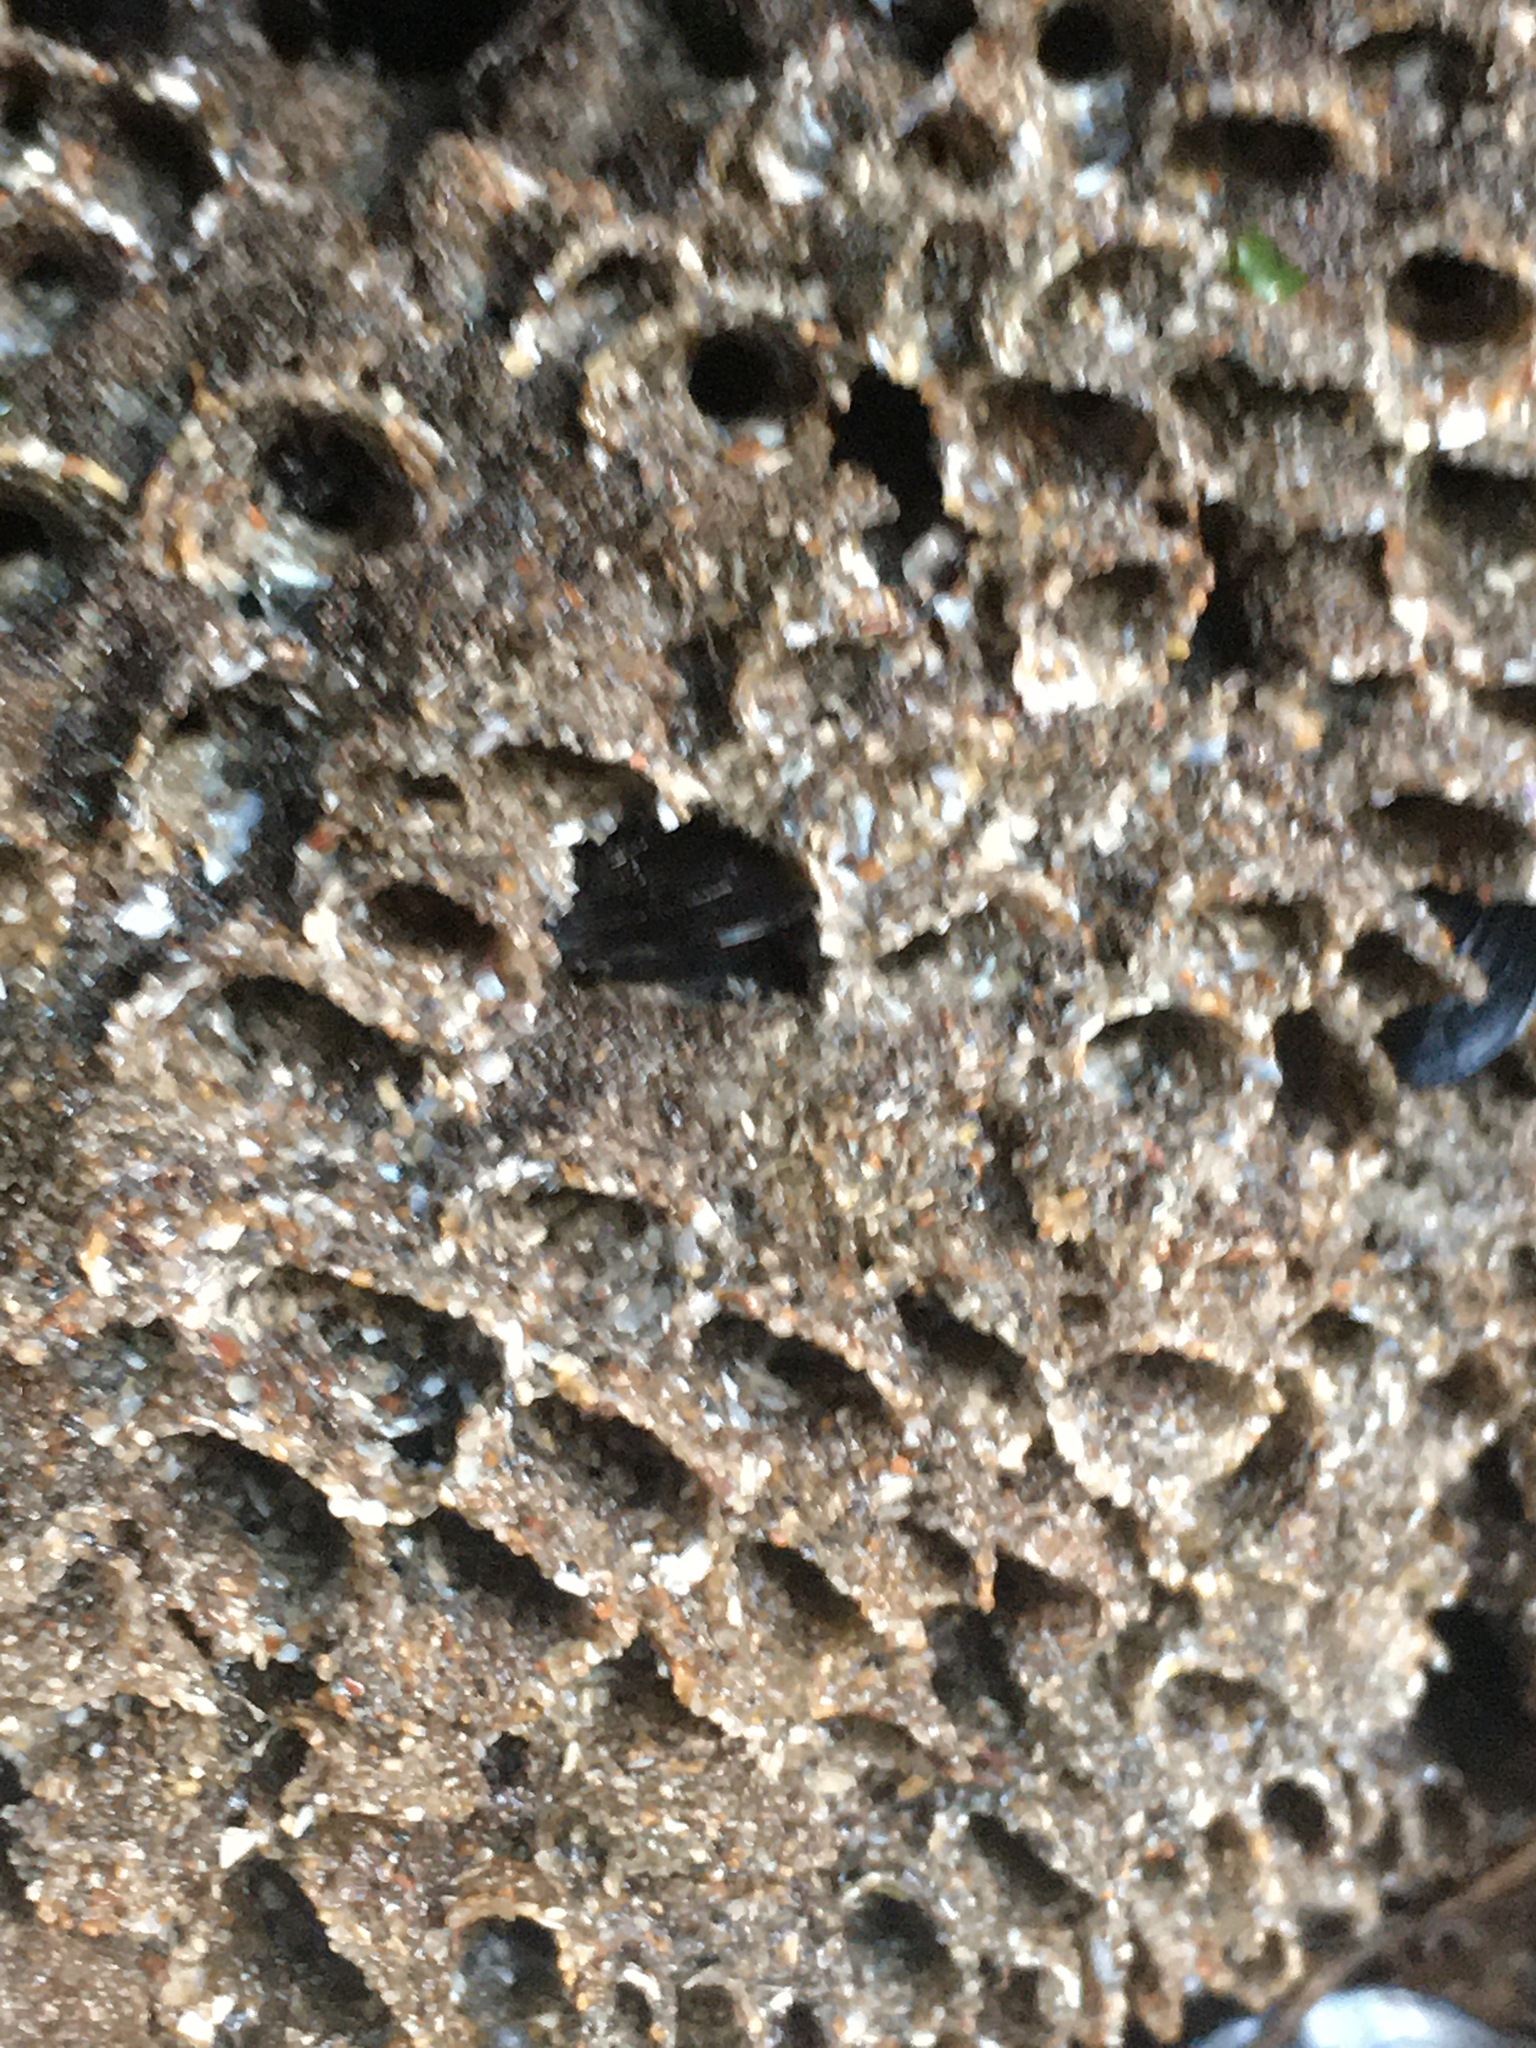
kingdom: Animalia
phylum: Annelida
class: Polychaeta
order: Sabellida
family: Sabellariidae
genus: Phragmatopoma
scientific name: Phragmatopoma californica
